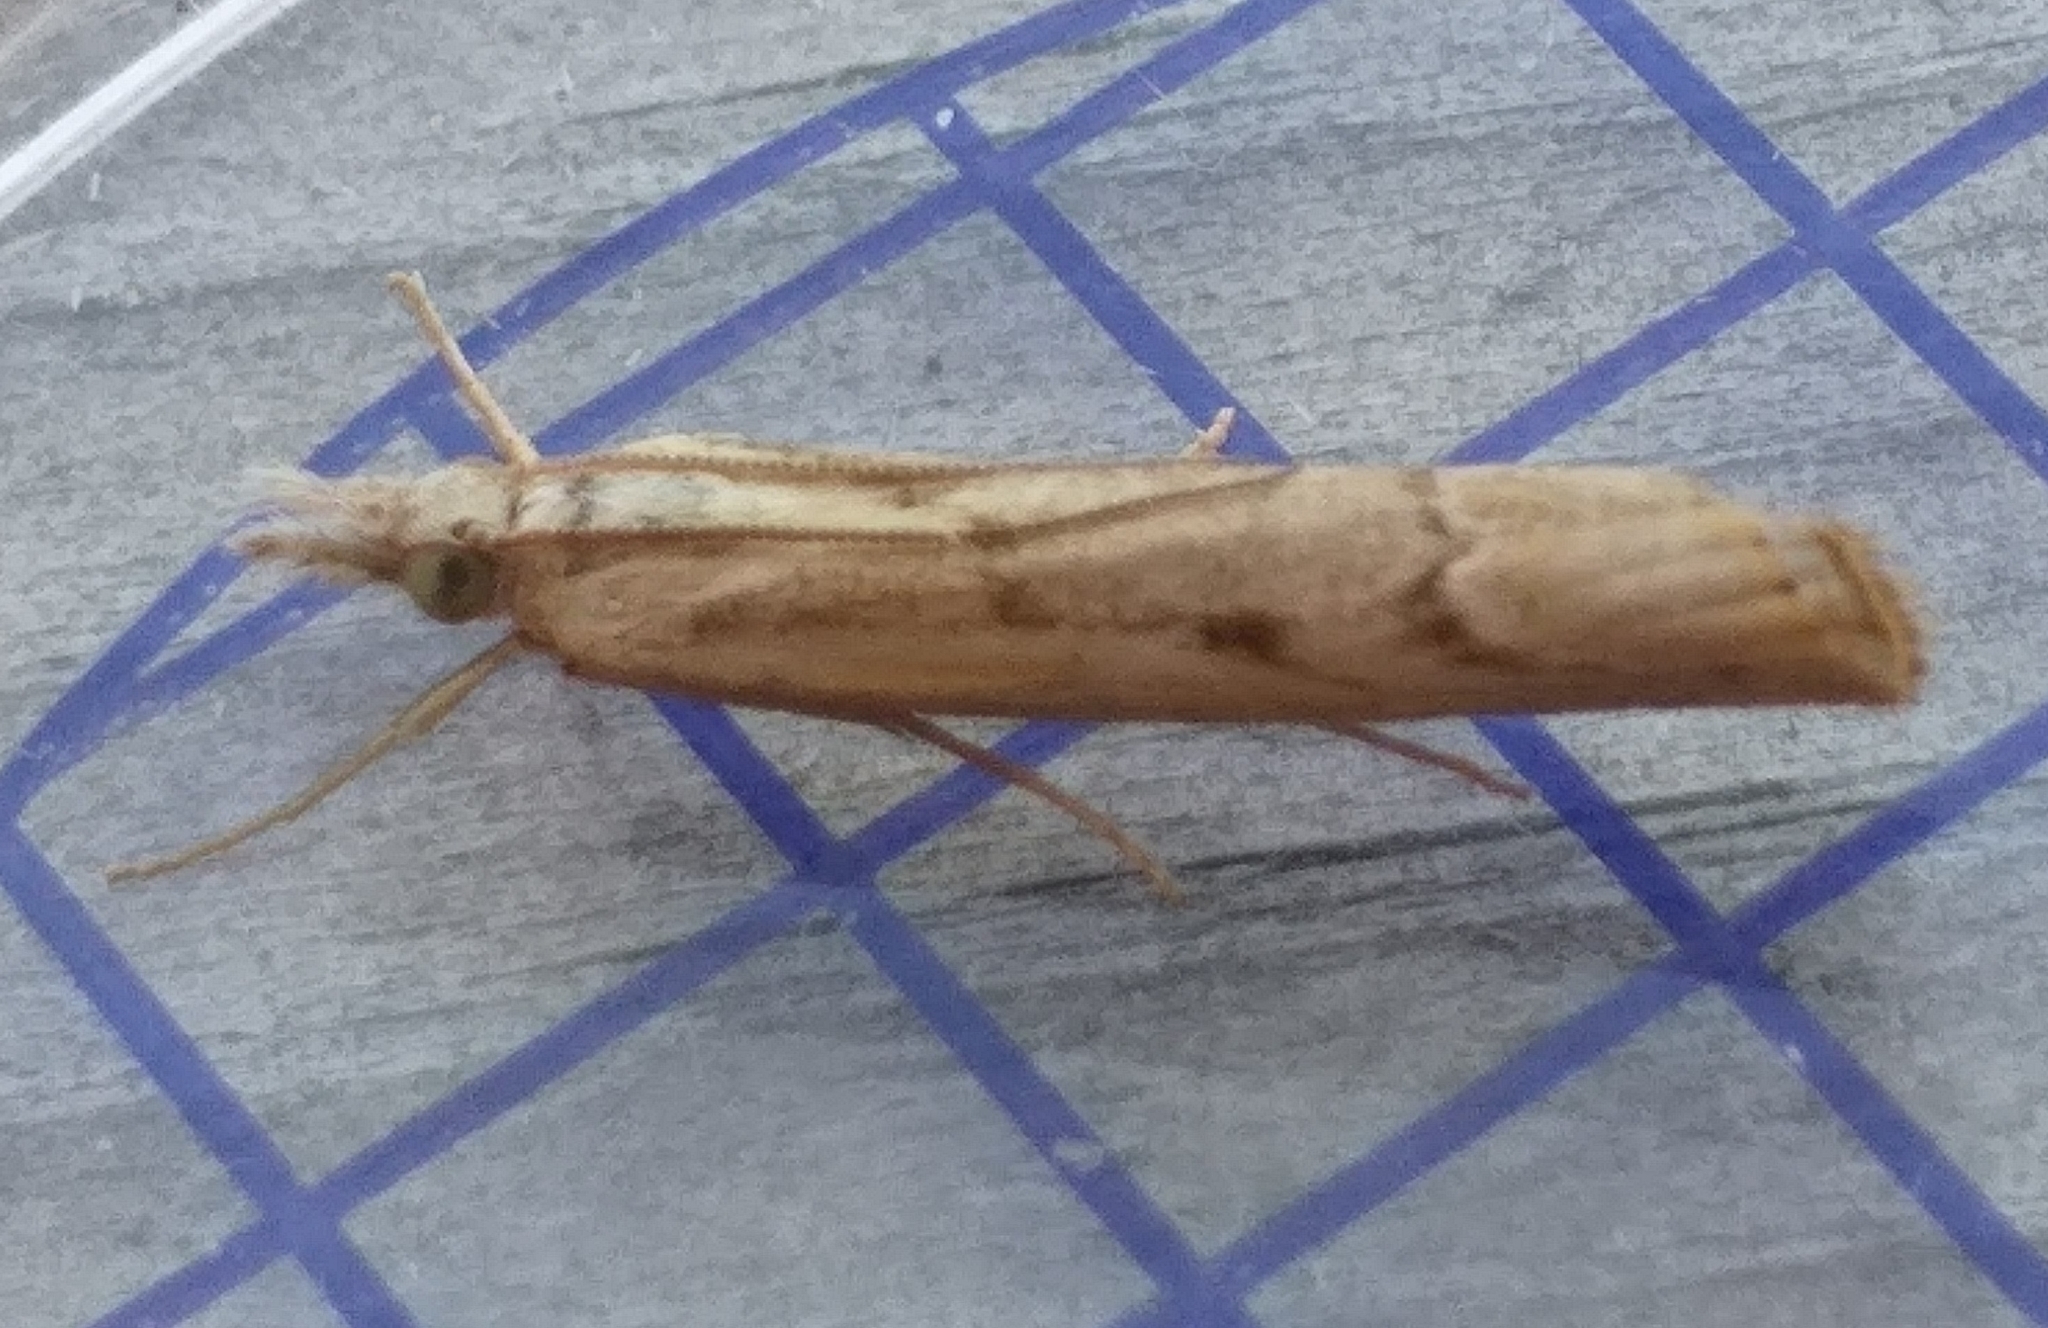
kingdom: Animalia
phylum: Arthropoda
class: Insecta
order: Lepidoptera
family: Crambidae
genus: Agriphila
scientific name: Agriphila geniculea
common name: Elbow-stripe grass-veneer
